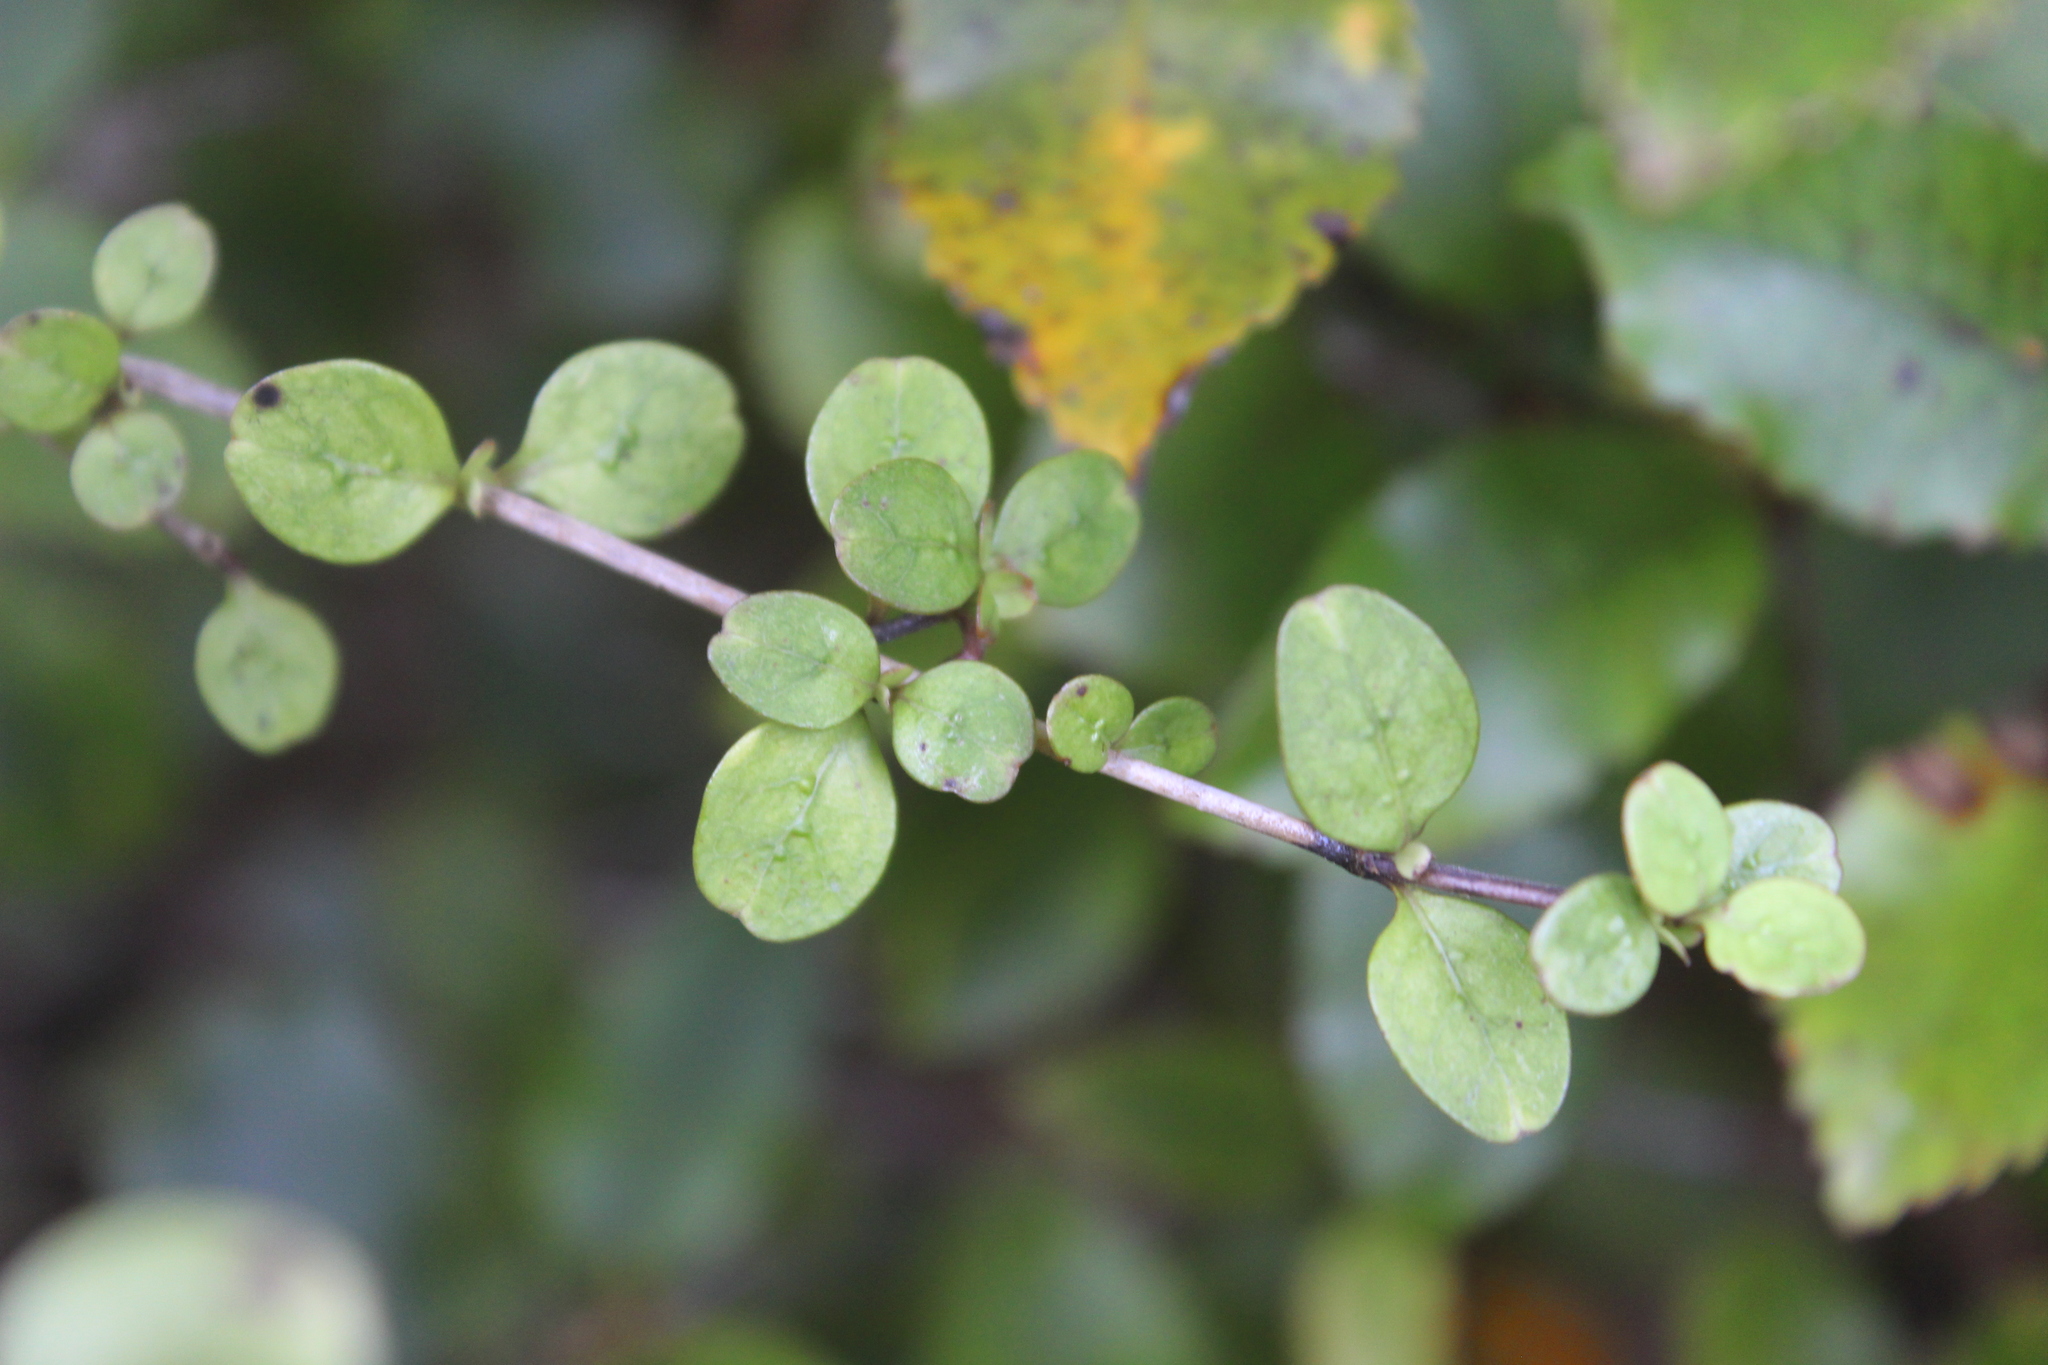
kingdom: Plantae
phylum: Tracheophyta
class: Magnoliopsida
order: Gentianales
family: Rubiaceae
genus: Coprosma
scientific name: Coprosma rhamnoides
